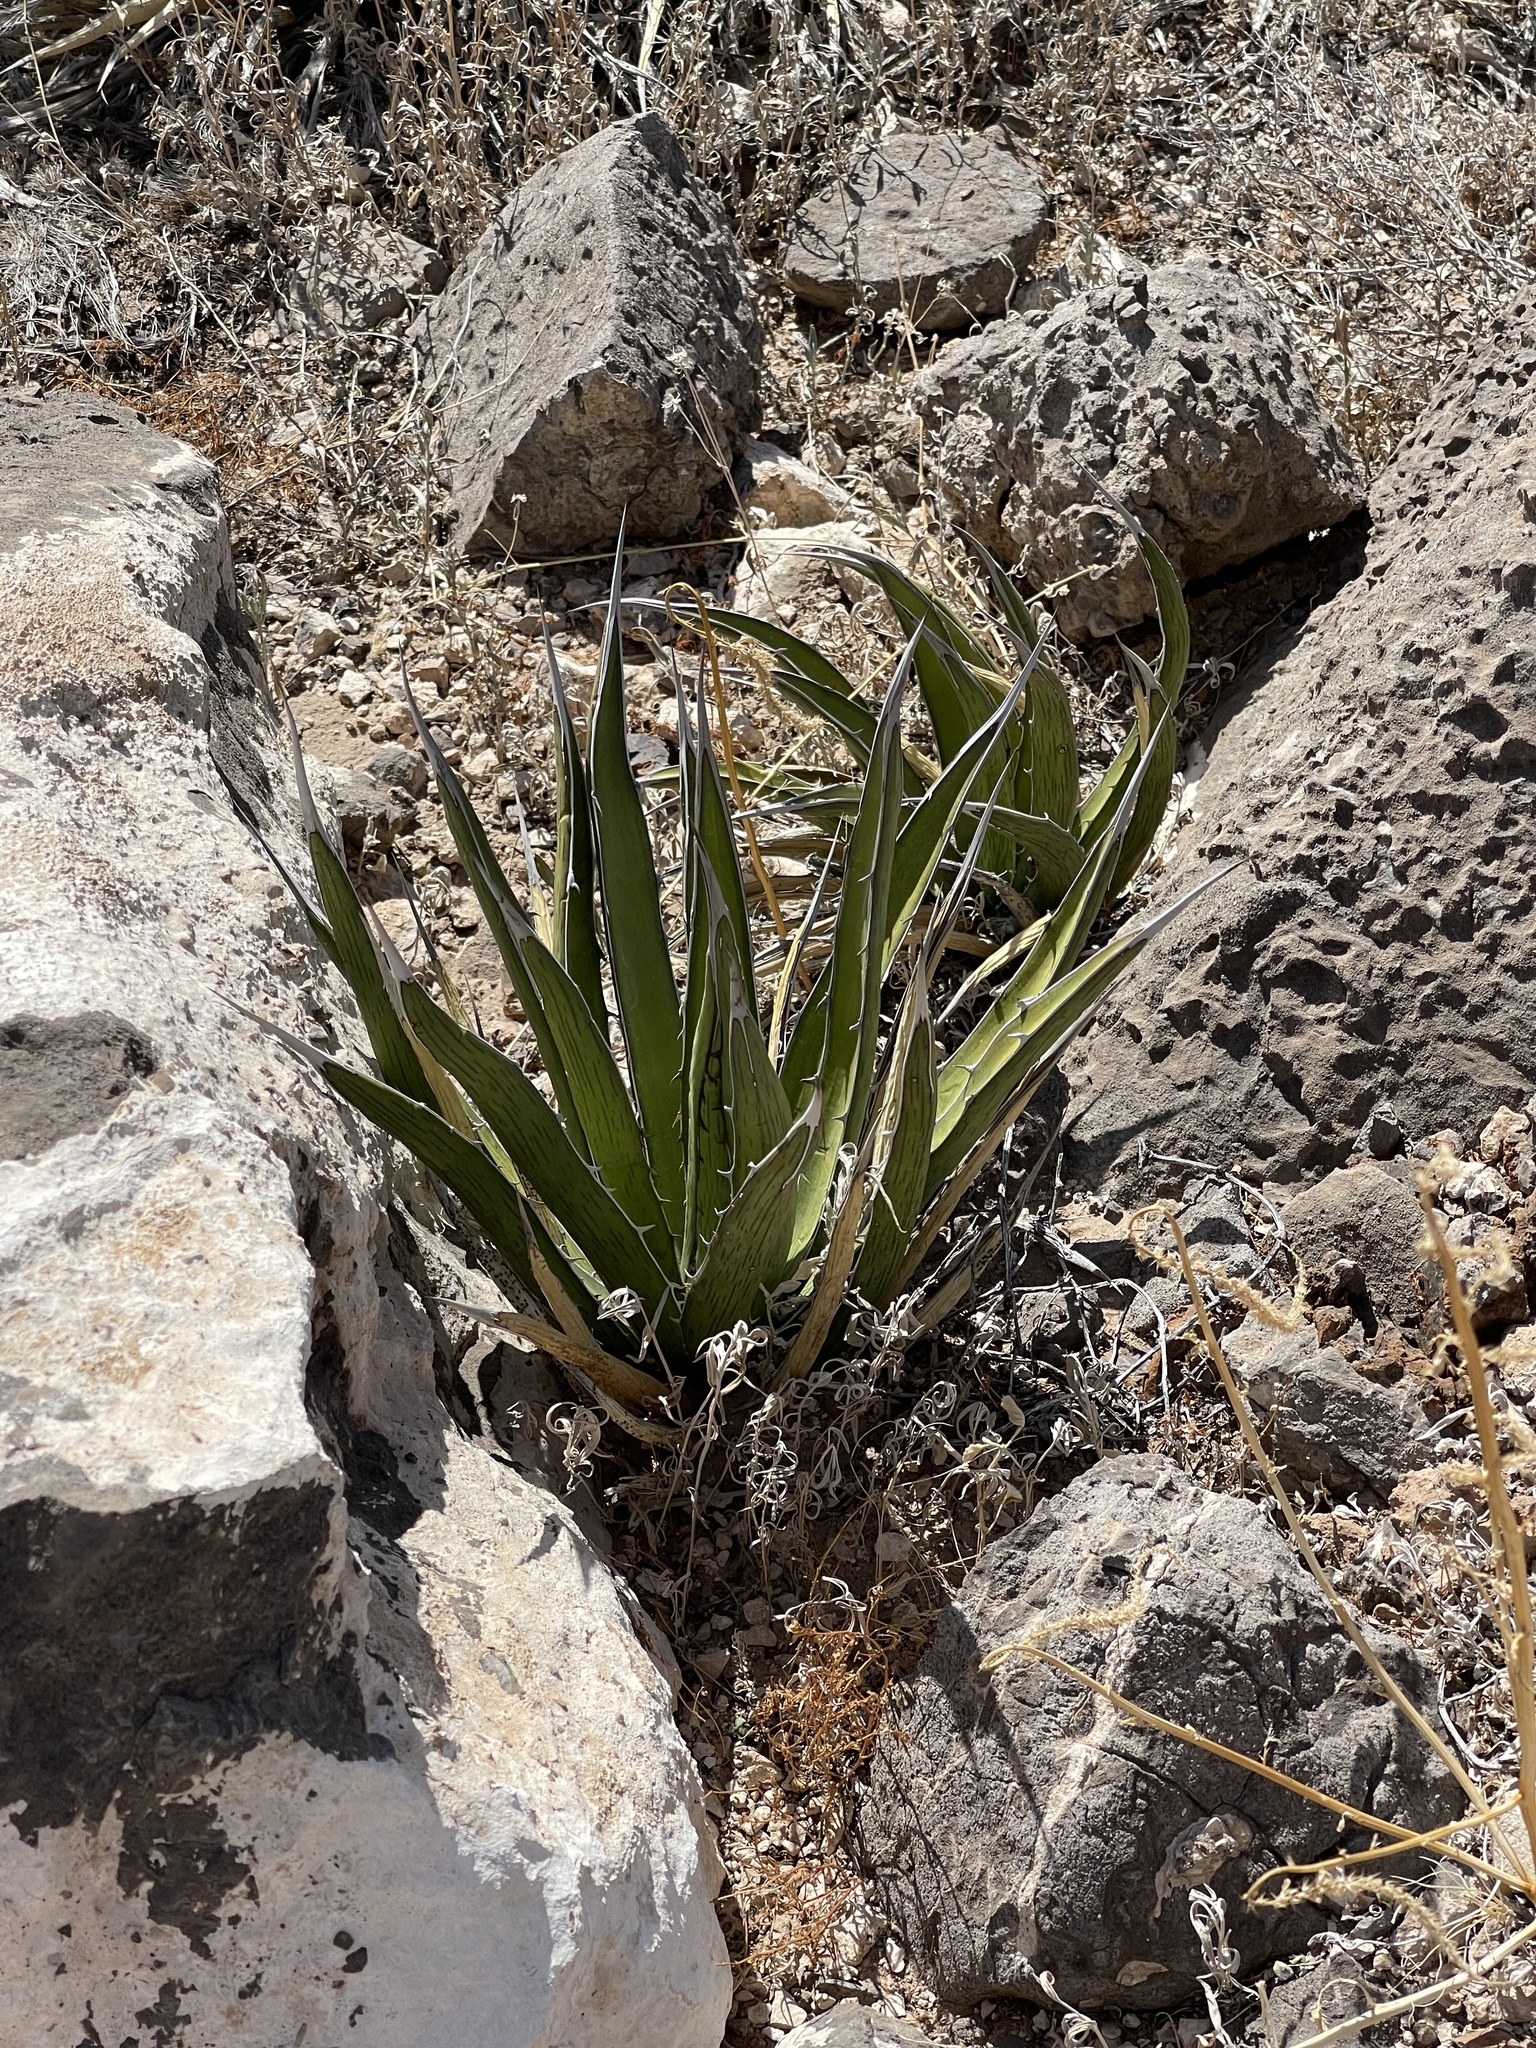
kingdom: Plantae
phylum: Tracheophyta
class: Liliopsida
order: Asparagales
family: Asparagaceae
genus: Agave
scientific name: Agave lechuguilla
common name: Lecheguilla agave
